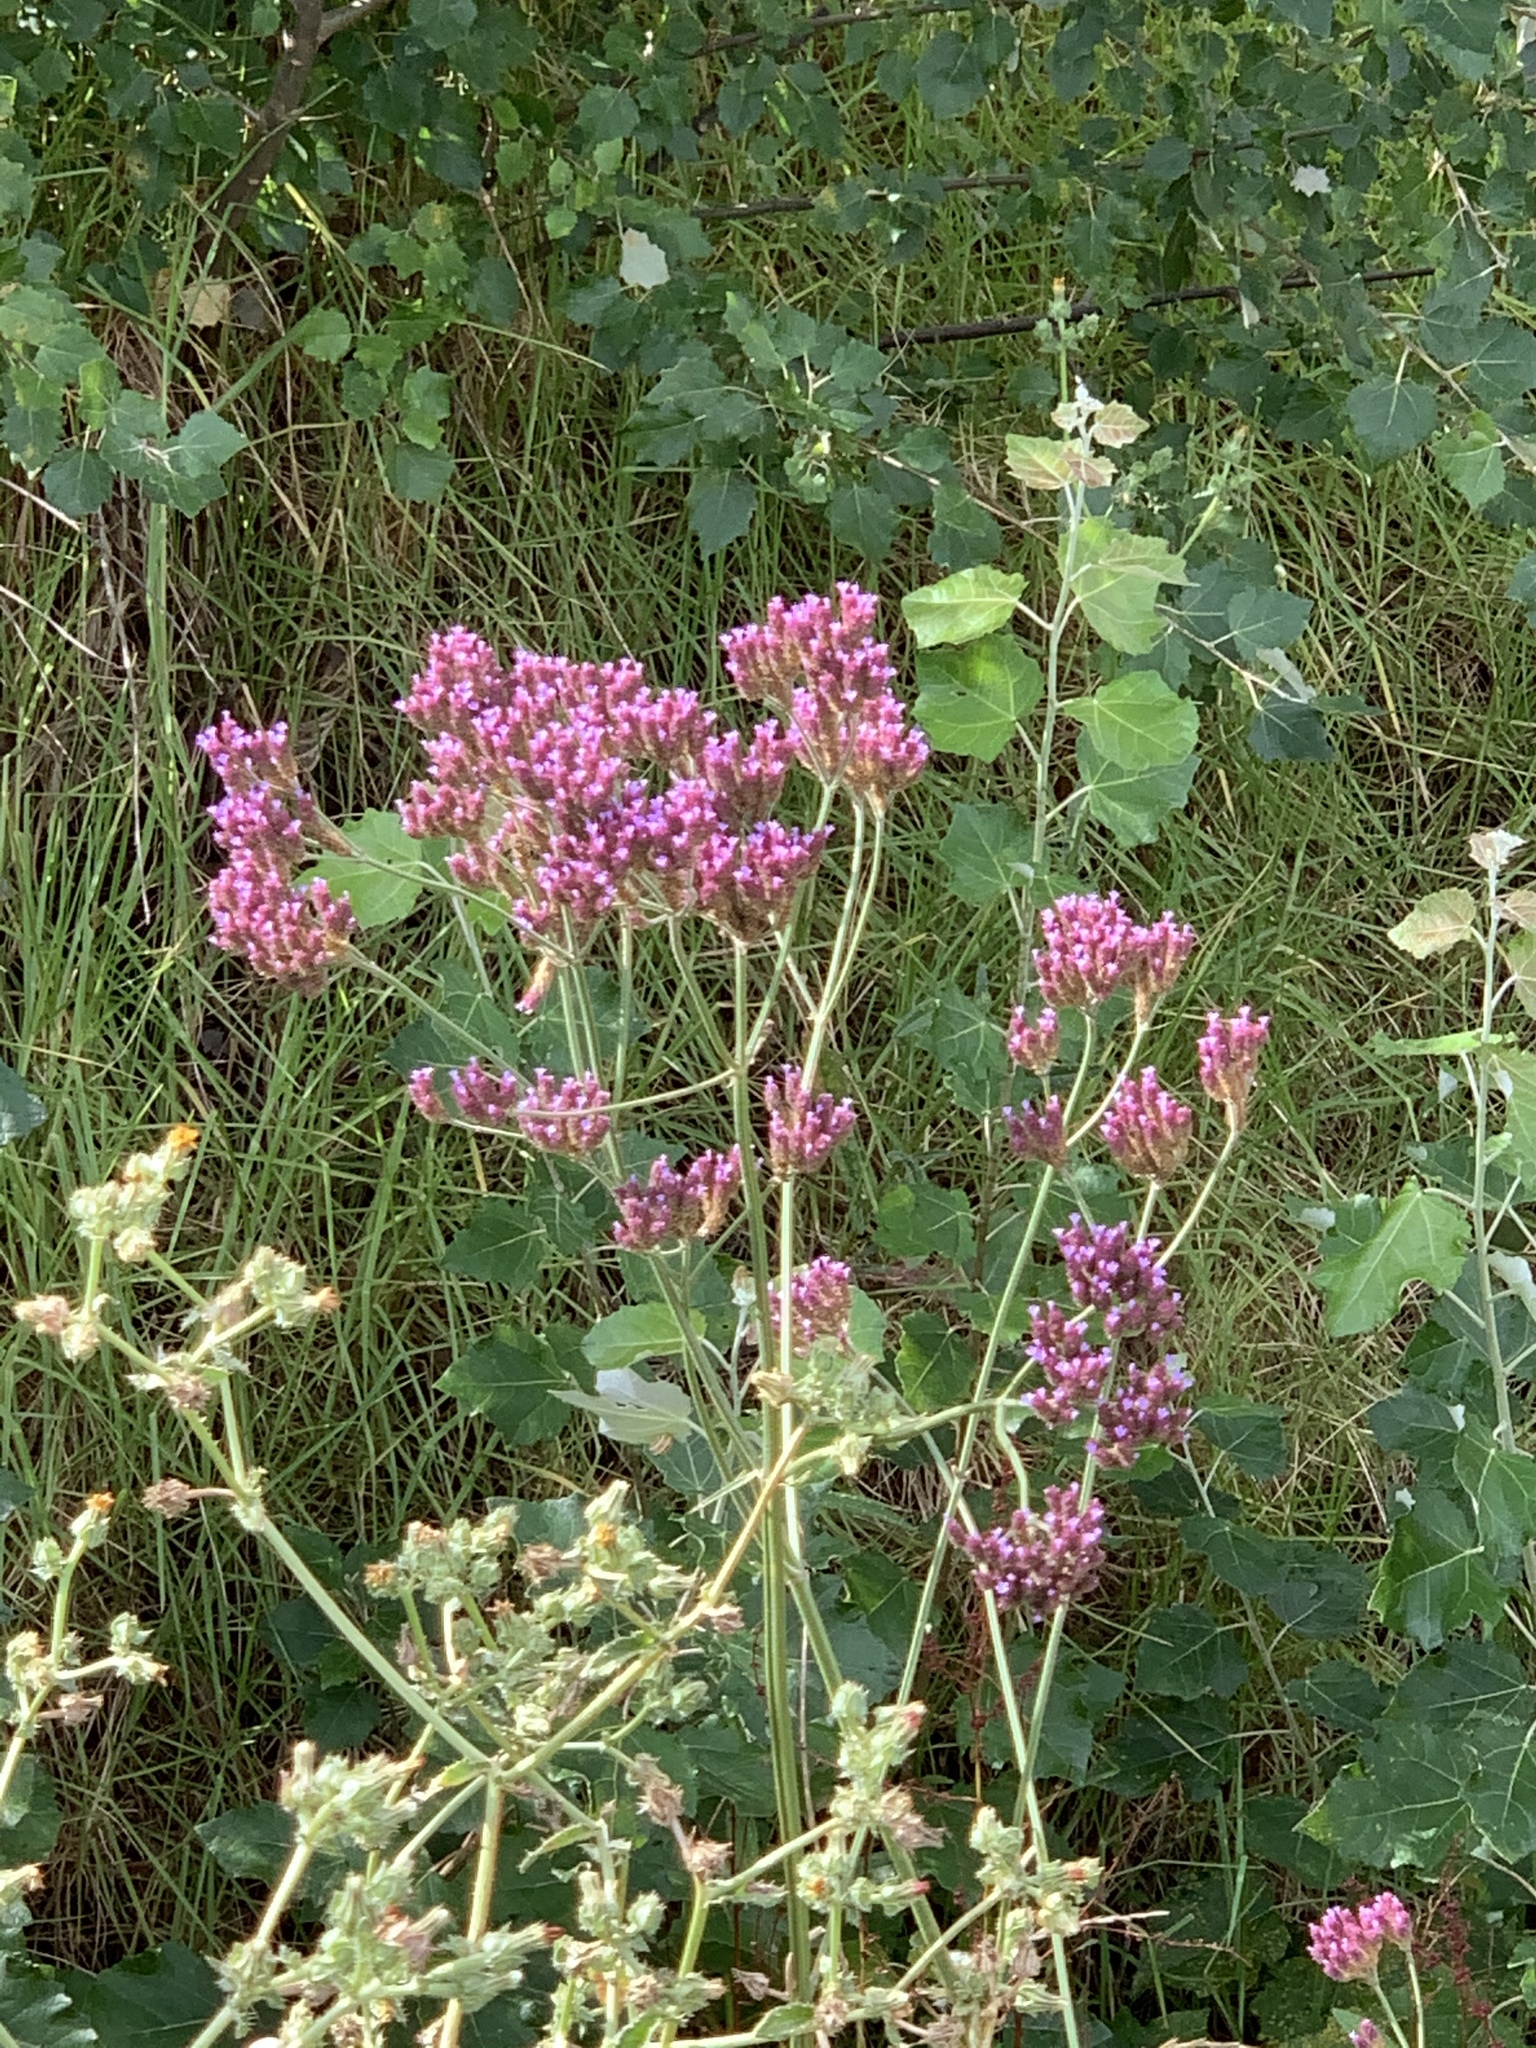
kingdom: Plantae
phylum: Tracheophyta
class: Magnoliopsida
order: Lamiales
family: Verbenaceae
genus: Verbena
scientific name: Verbena bonariensis
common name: Purpletop vervain
